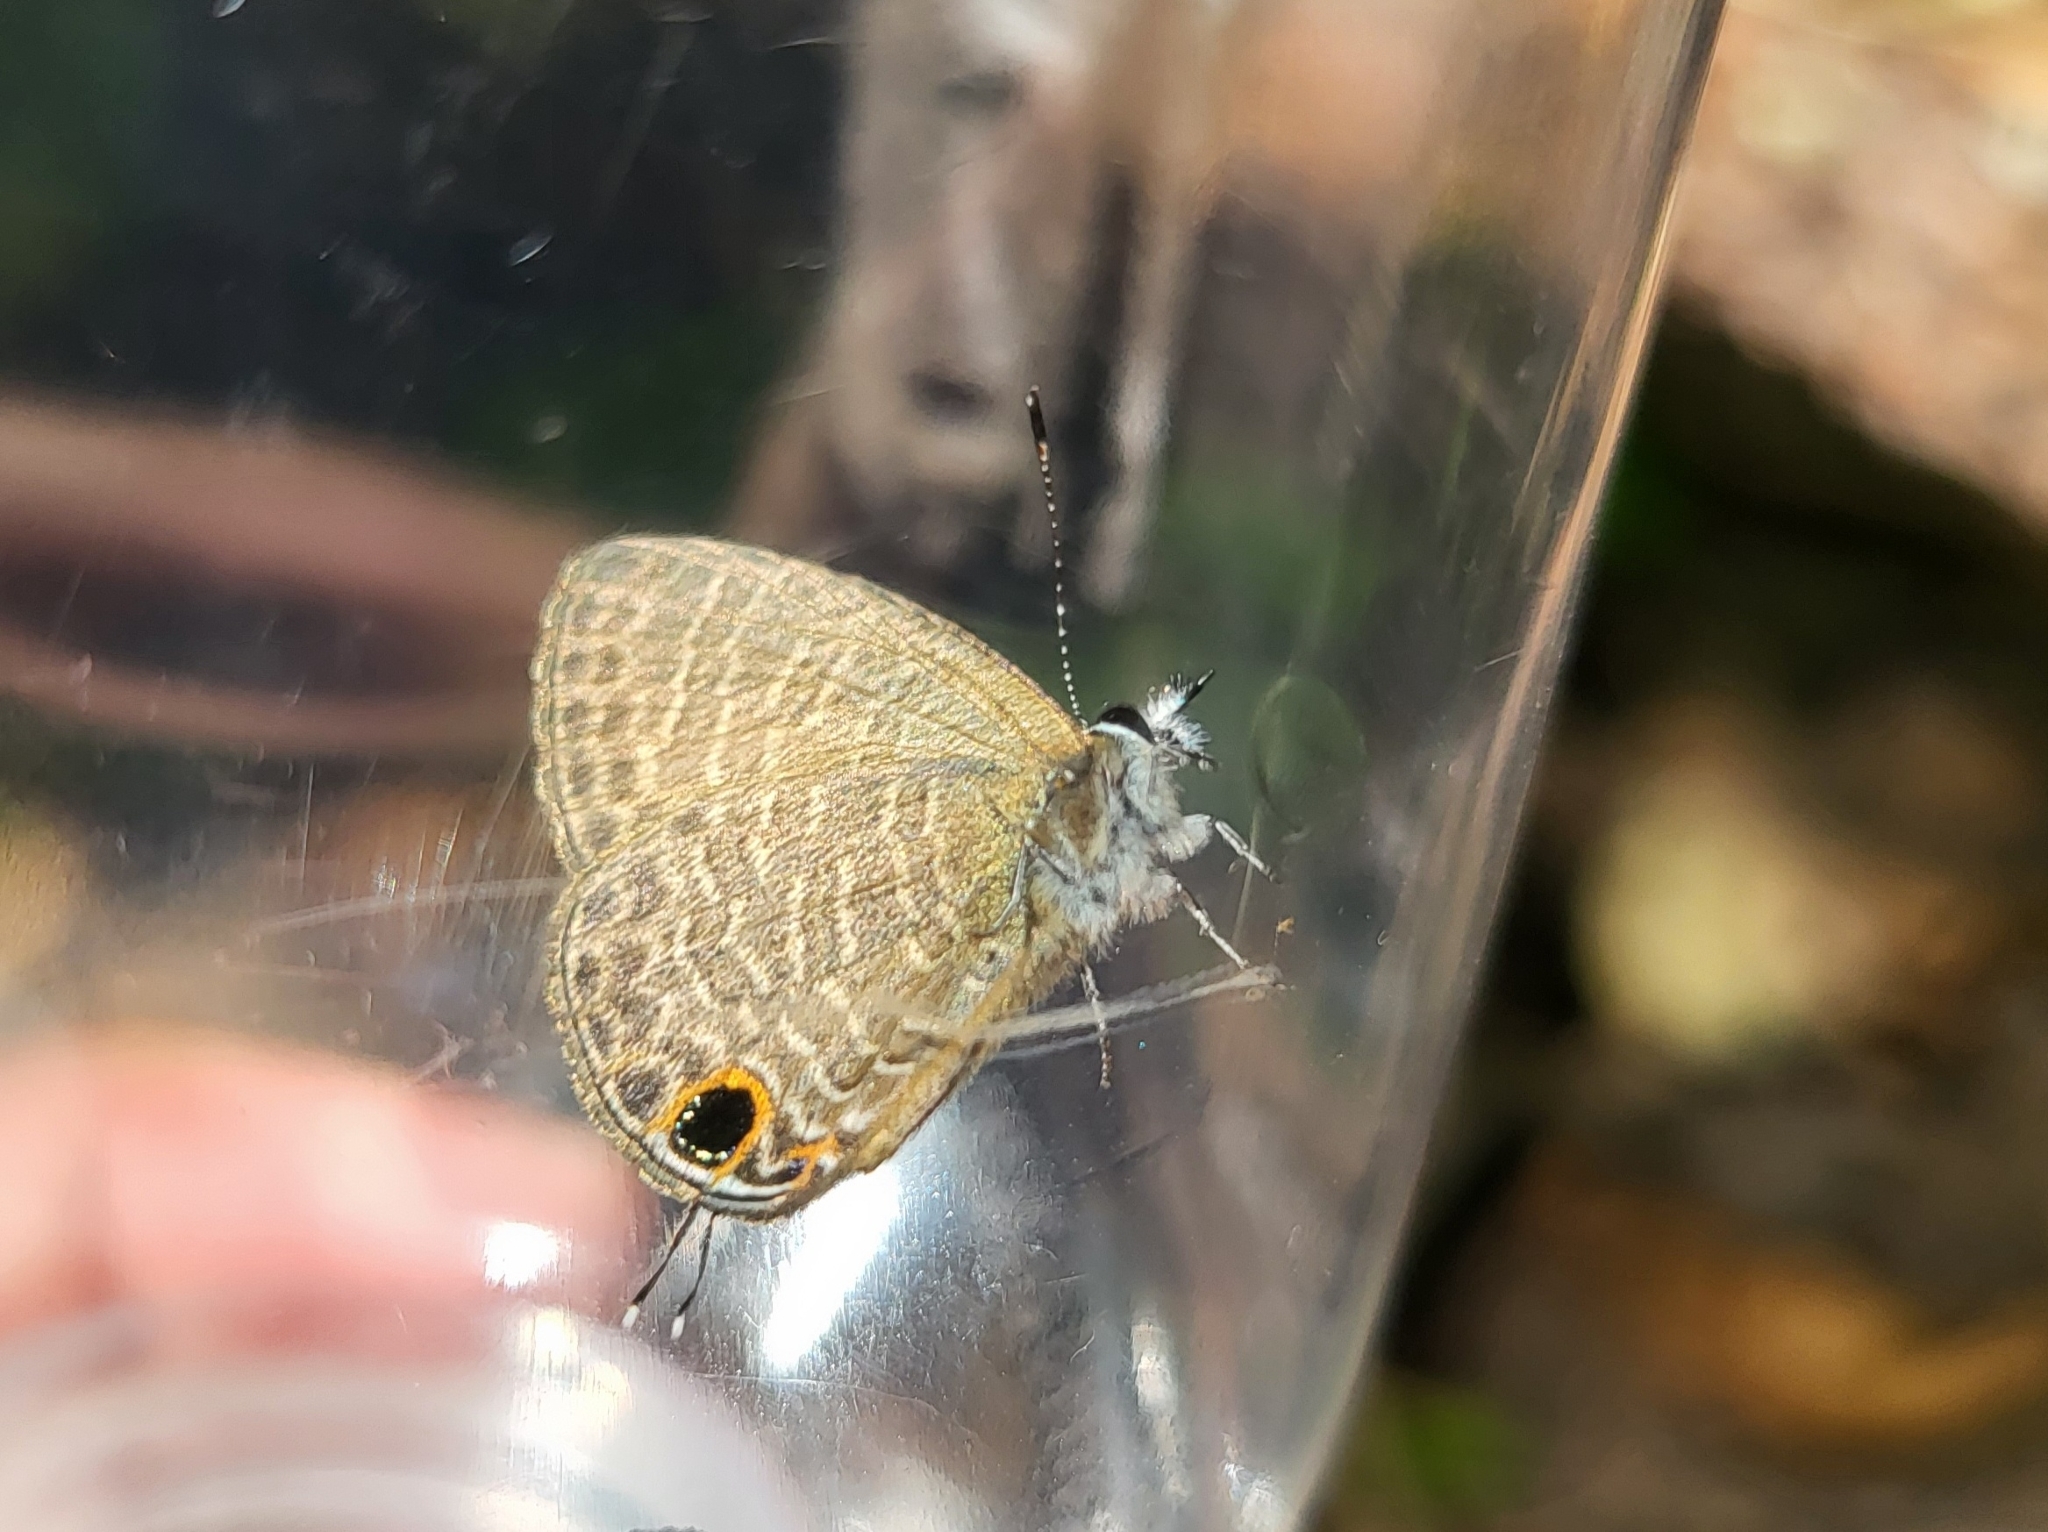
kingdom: Animalia
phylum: Arthropoda
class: Insecta
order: Lepidoptera
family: Lycaenidae
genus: Nacaduba
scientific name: Nacaduba berenice
